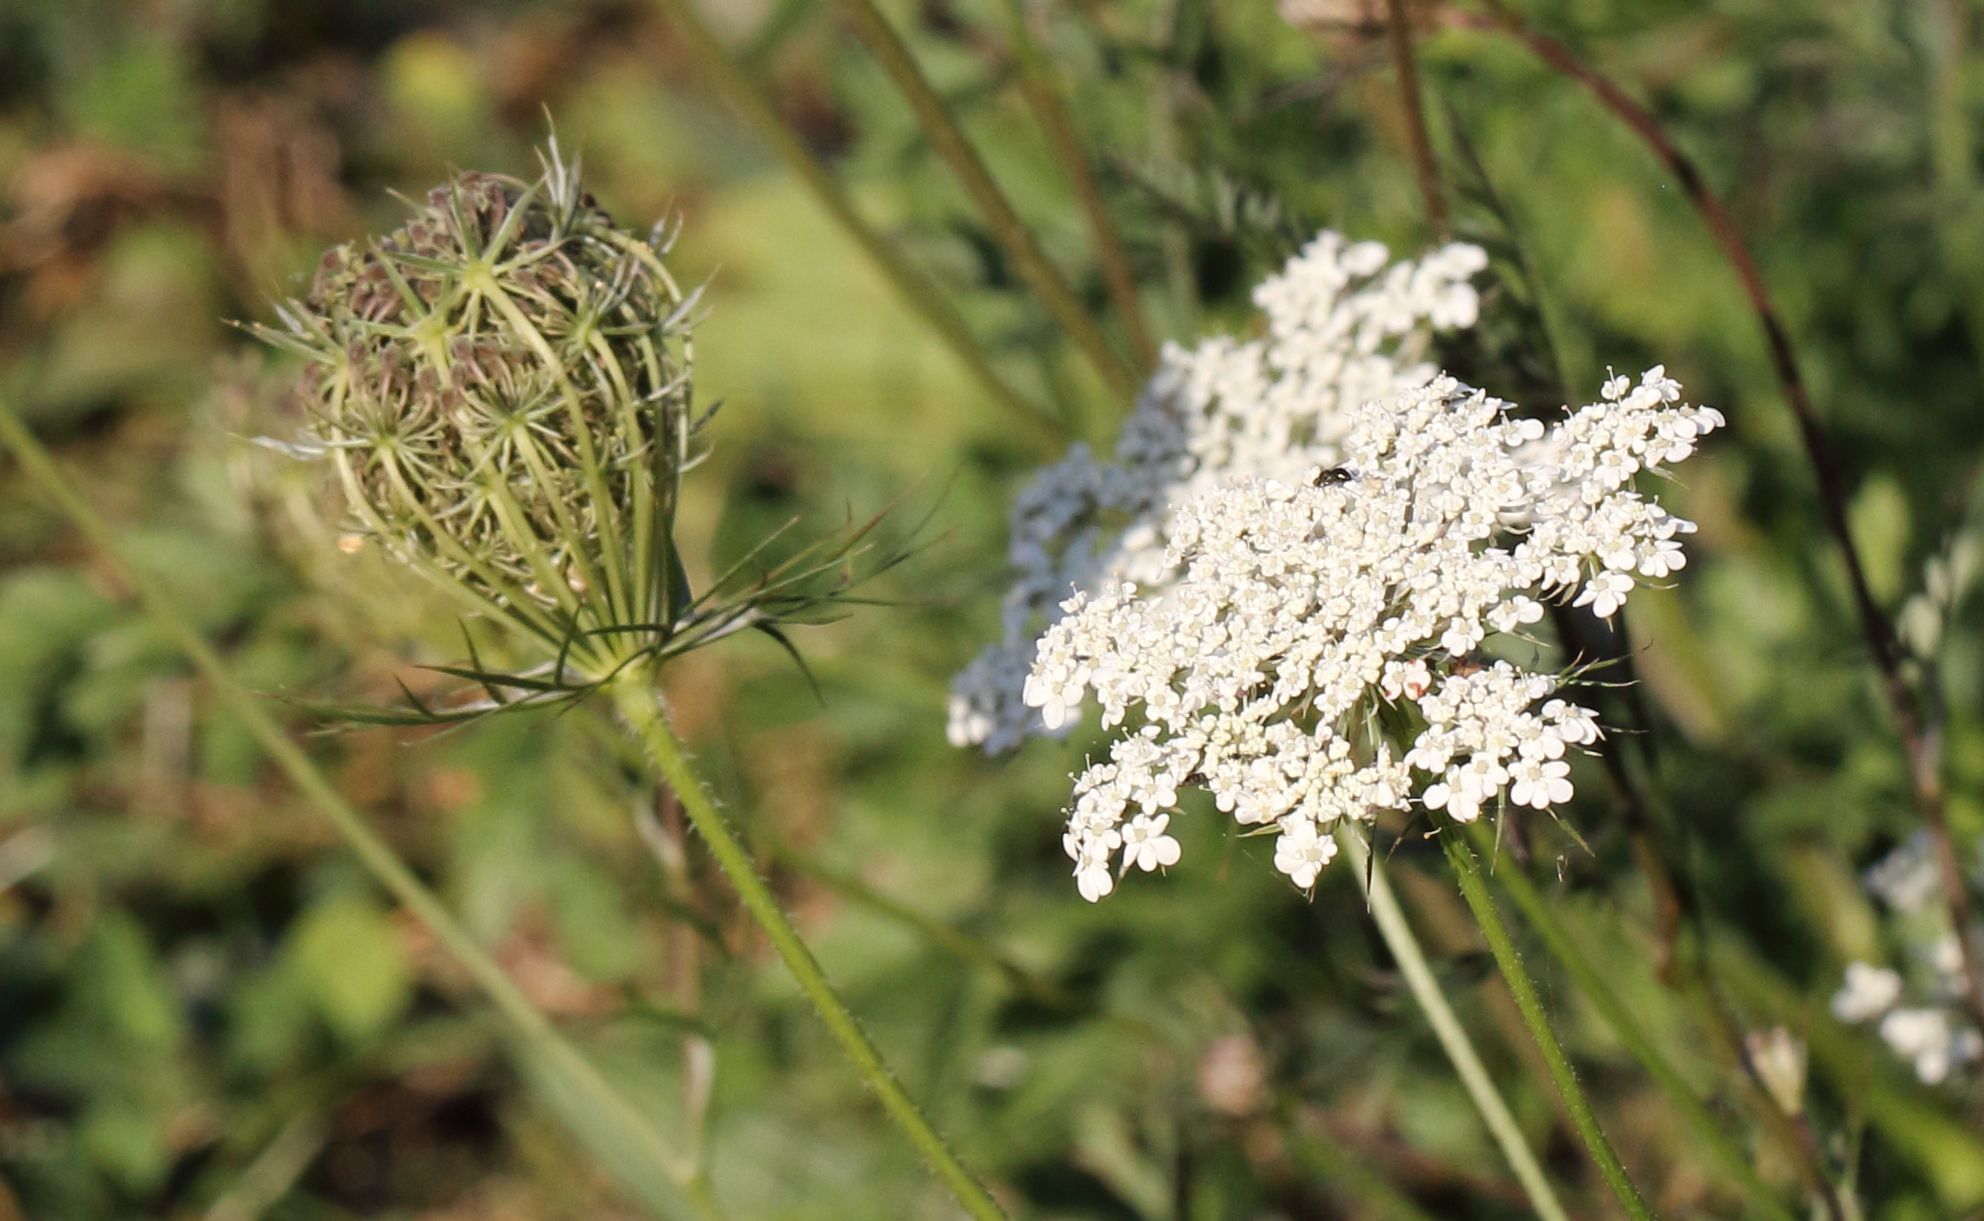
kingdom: Plantae
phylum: Tracheophyta
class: Magnoliopsida
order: Apiales
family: Apiaceae
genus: Daucus
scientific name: Daucus carota
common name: Wild carrot
